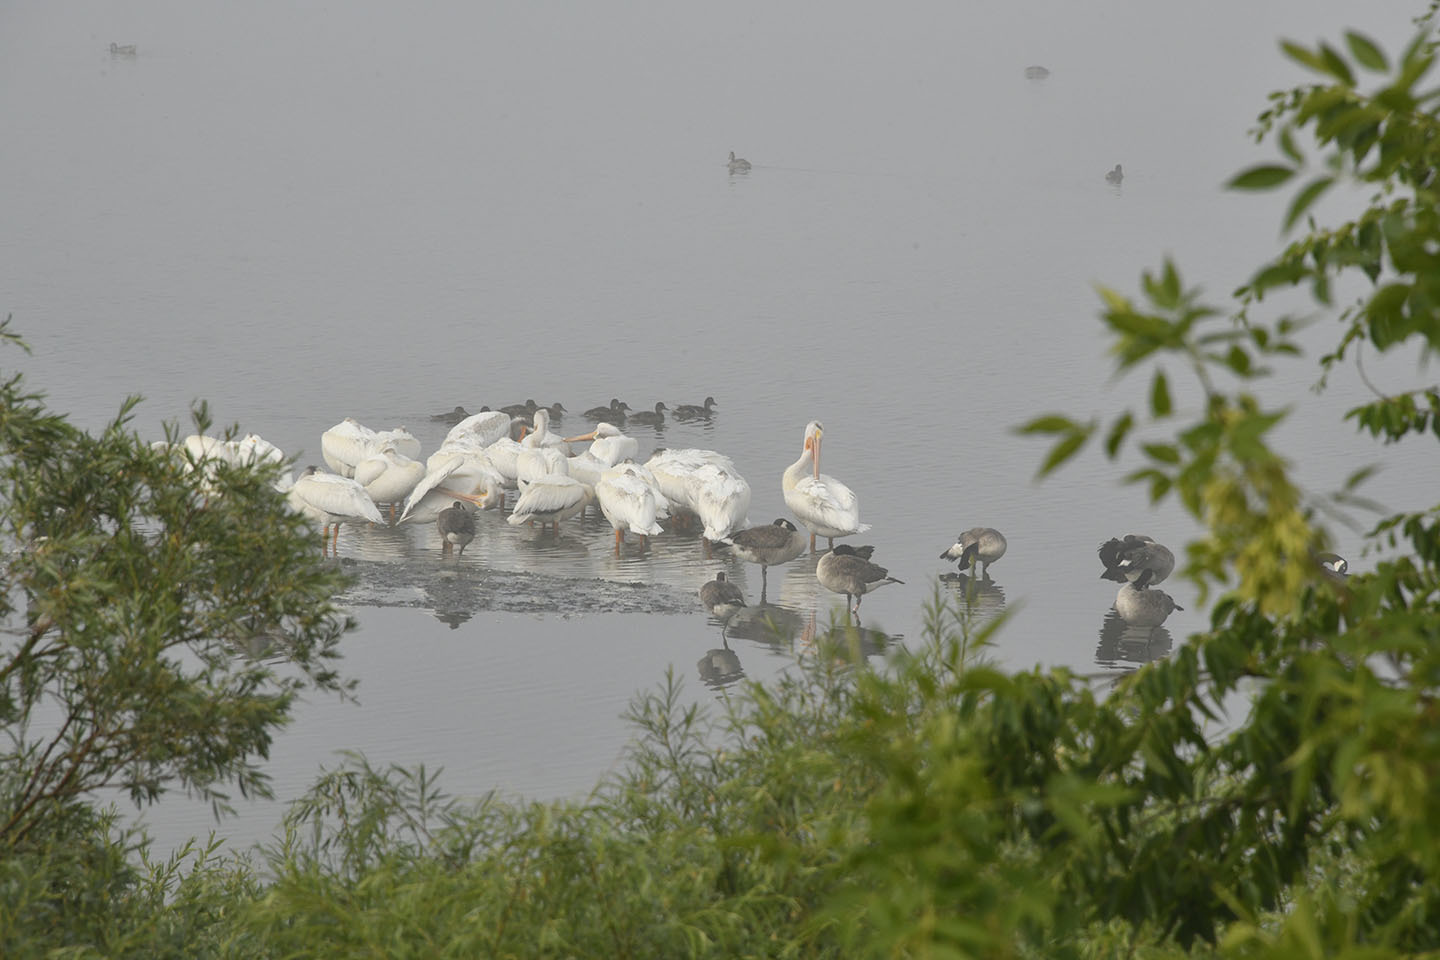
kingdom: Animalia
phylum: Chordata
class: Aves
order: Pelecaniformes
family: Pelecanidae
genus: Pelecanus
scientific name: Pelecanus erythrorhynchos
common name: American white pelican
